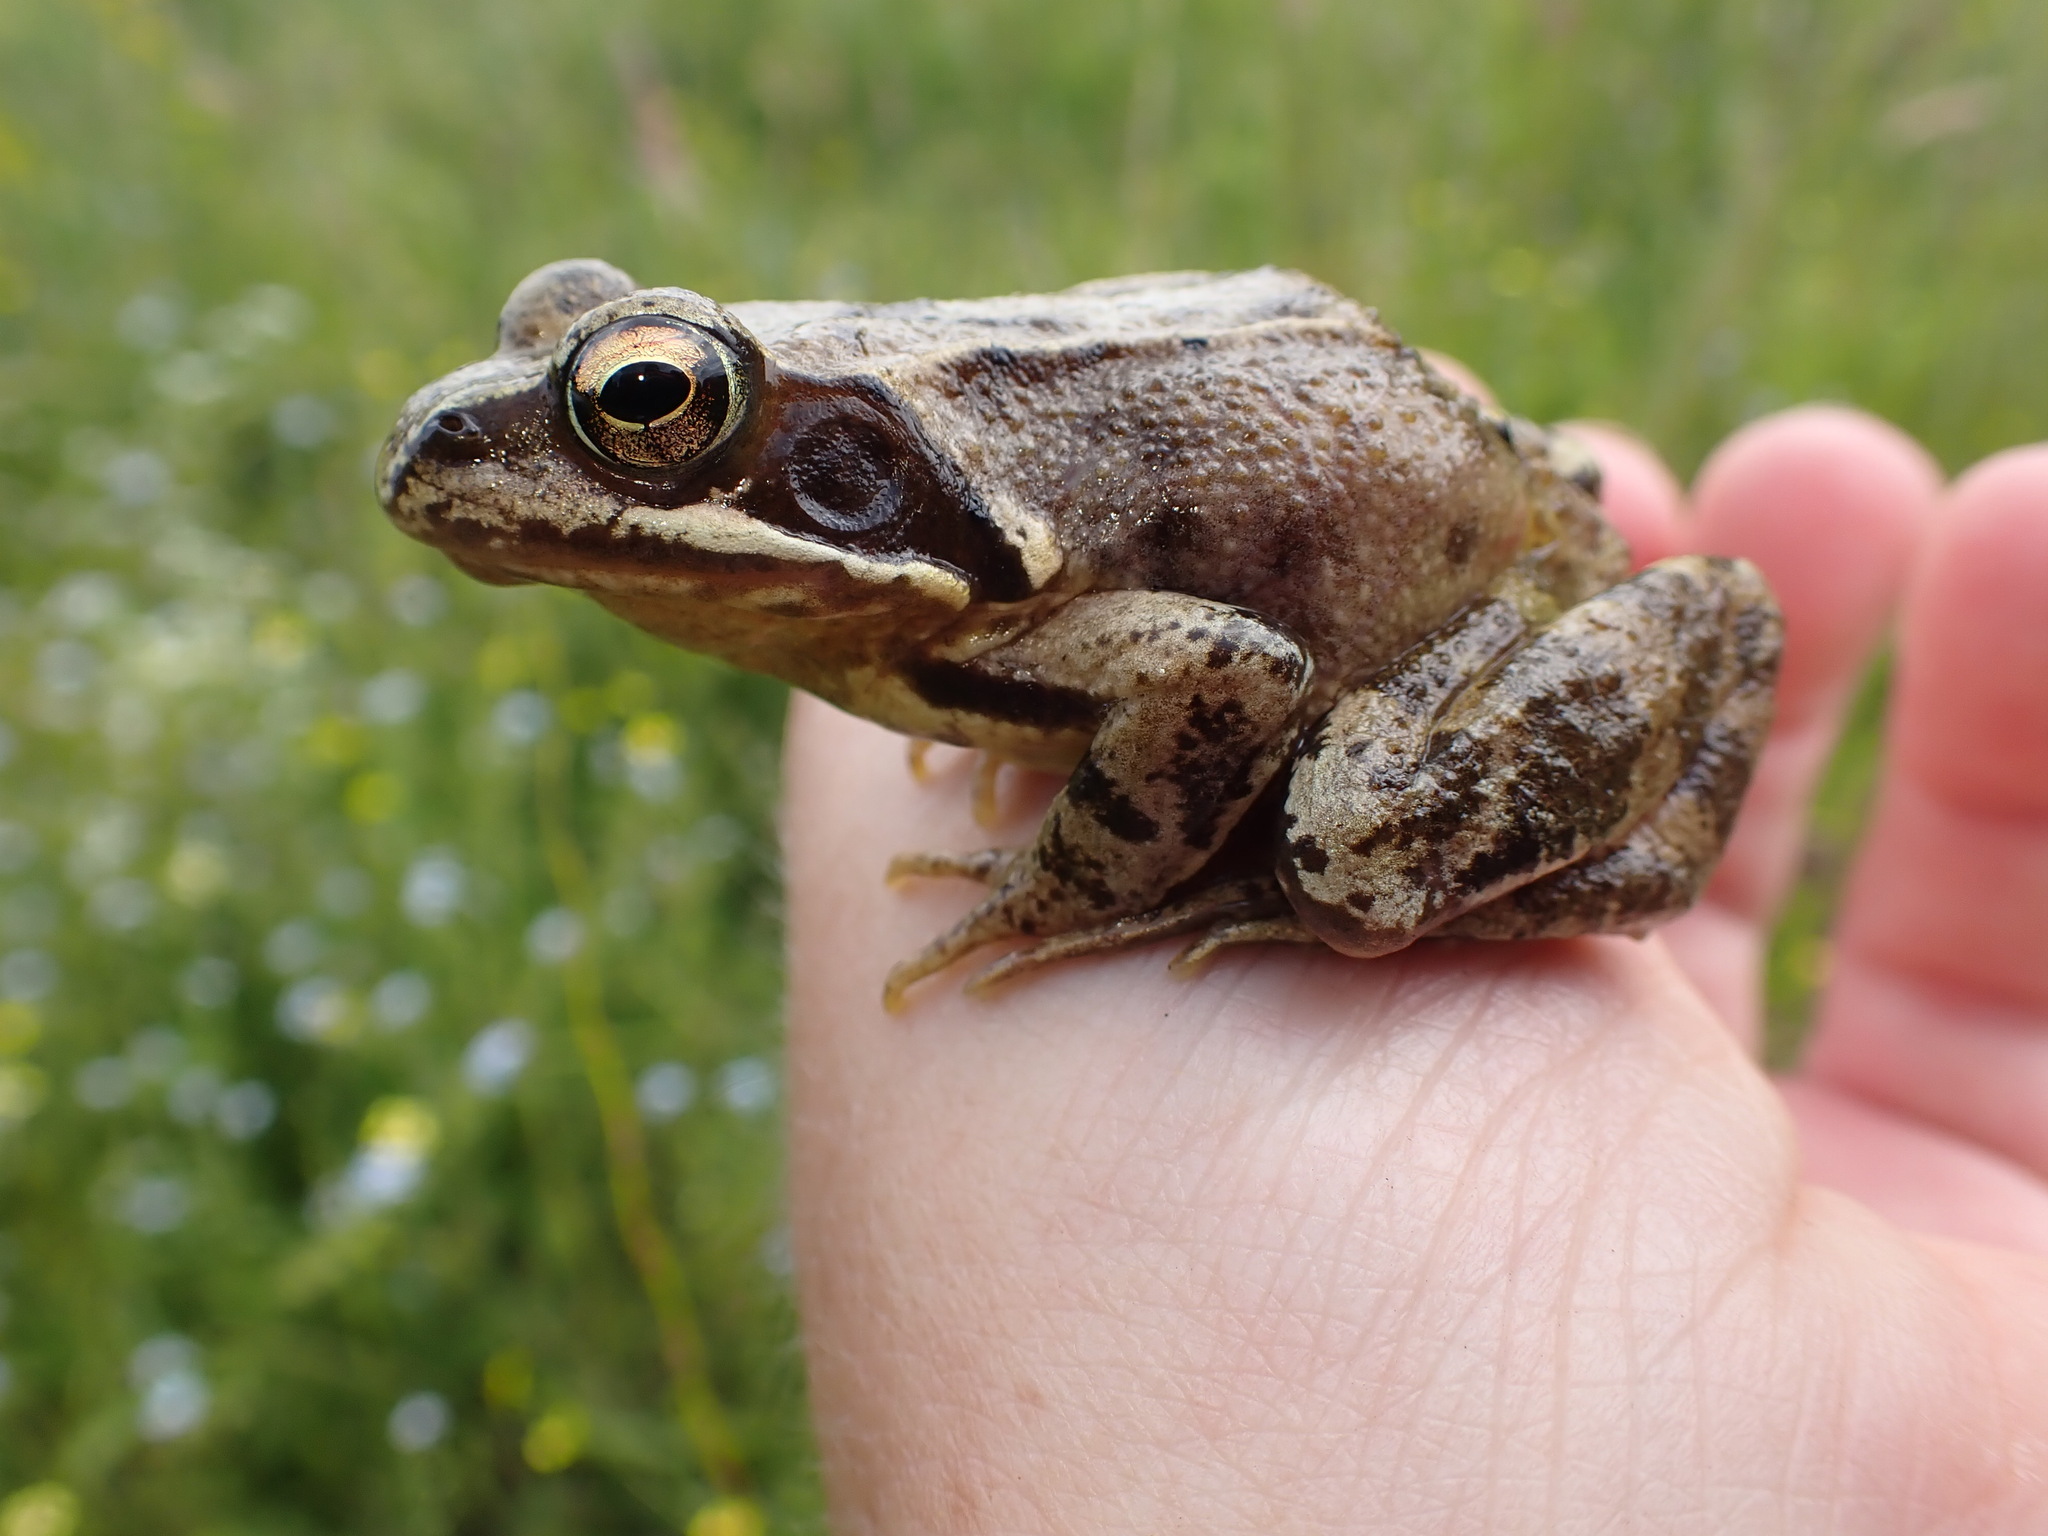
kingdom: Animalia
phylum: Chordata
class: Amphibia
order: Anura
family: Ranidae
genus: Rana
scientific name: Rana temporaria
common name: Common frog
